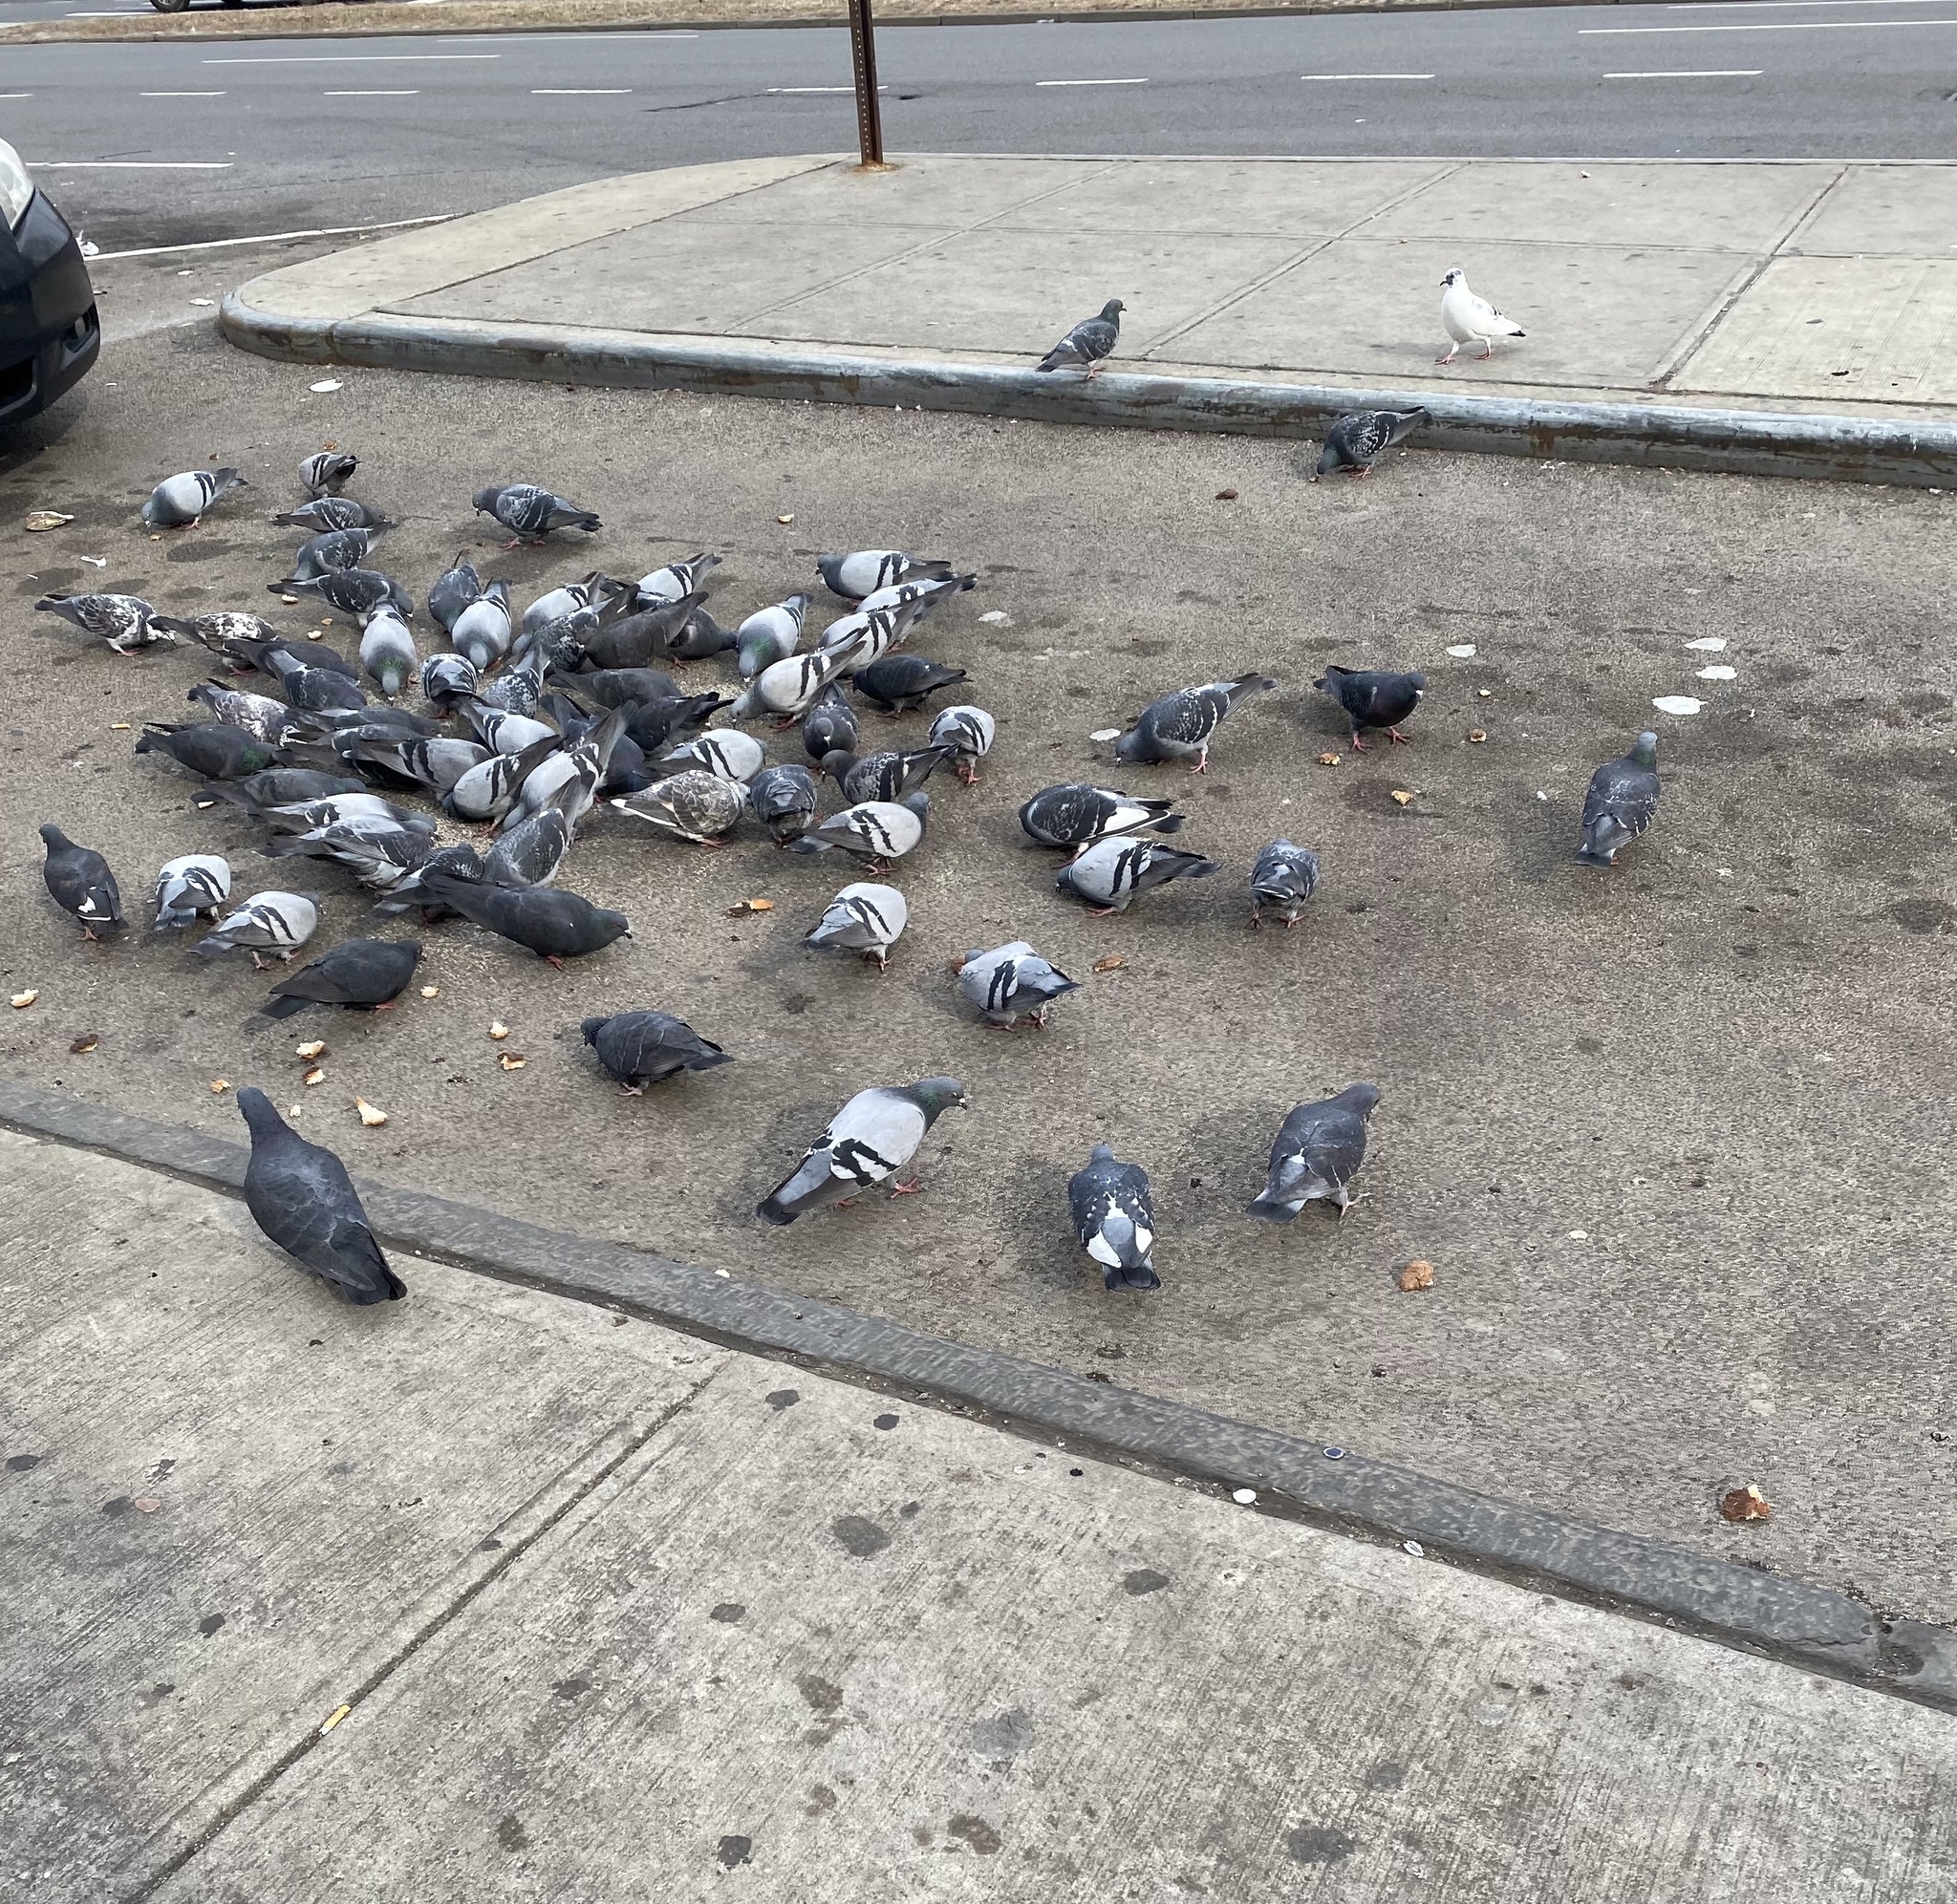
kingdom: Animalia
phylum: Chordata
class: Aves
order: Columbiformes
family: Columbidae
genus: Columba
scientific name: Columba livia
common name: Rock pigeon
